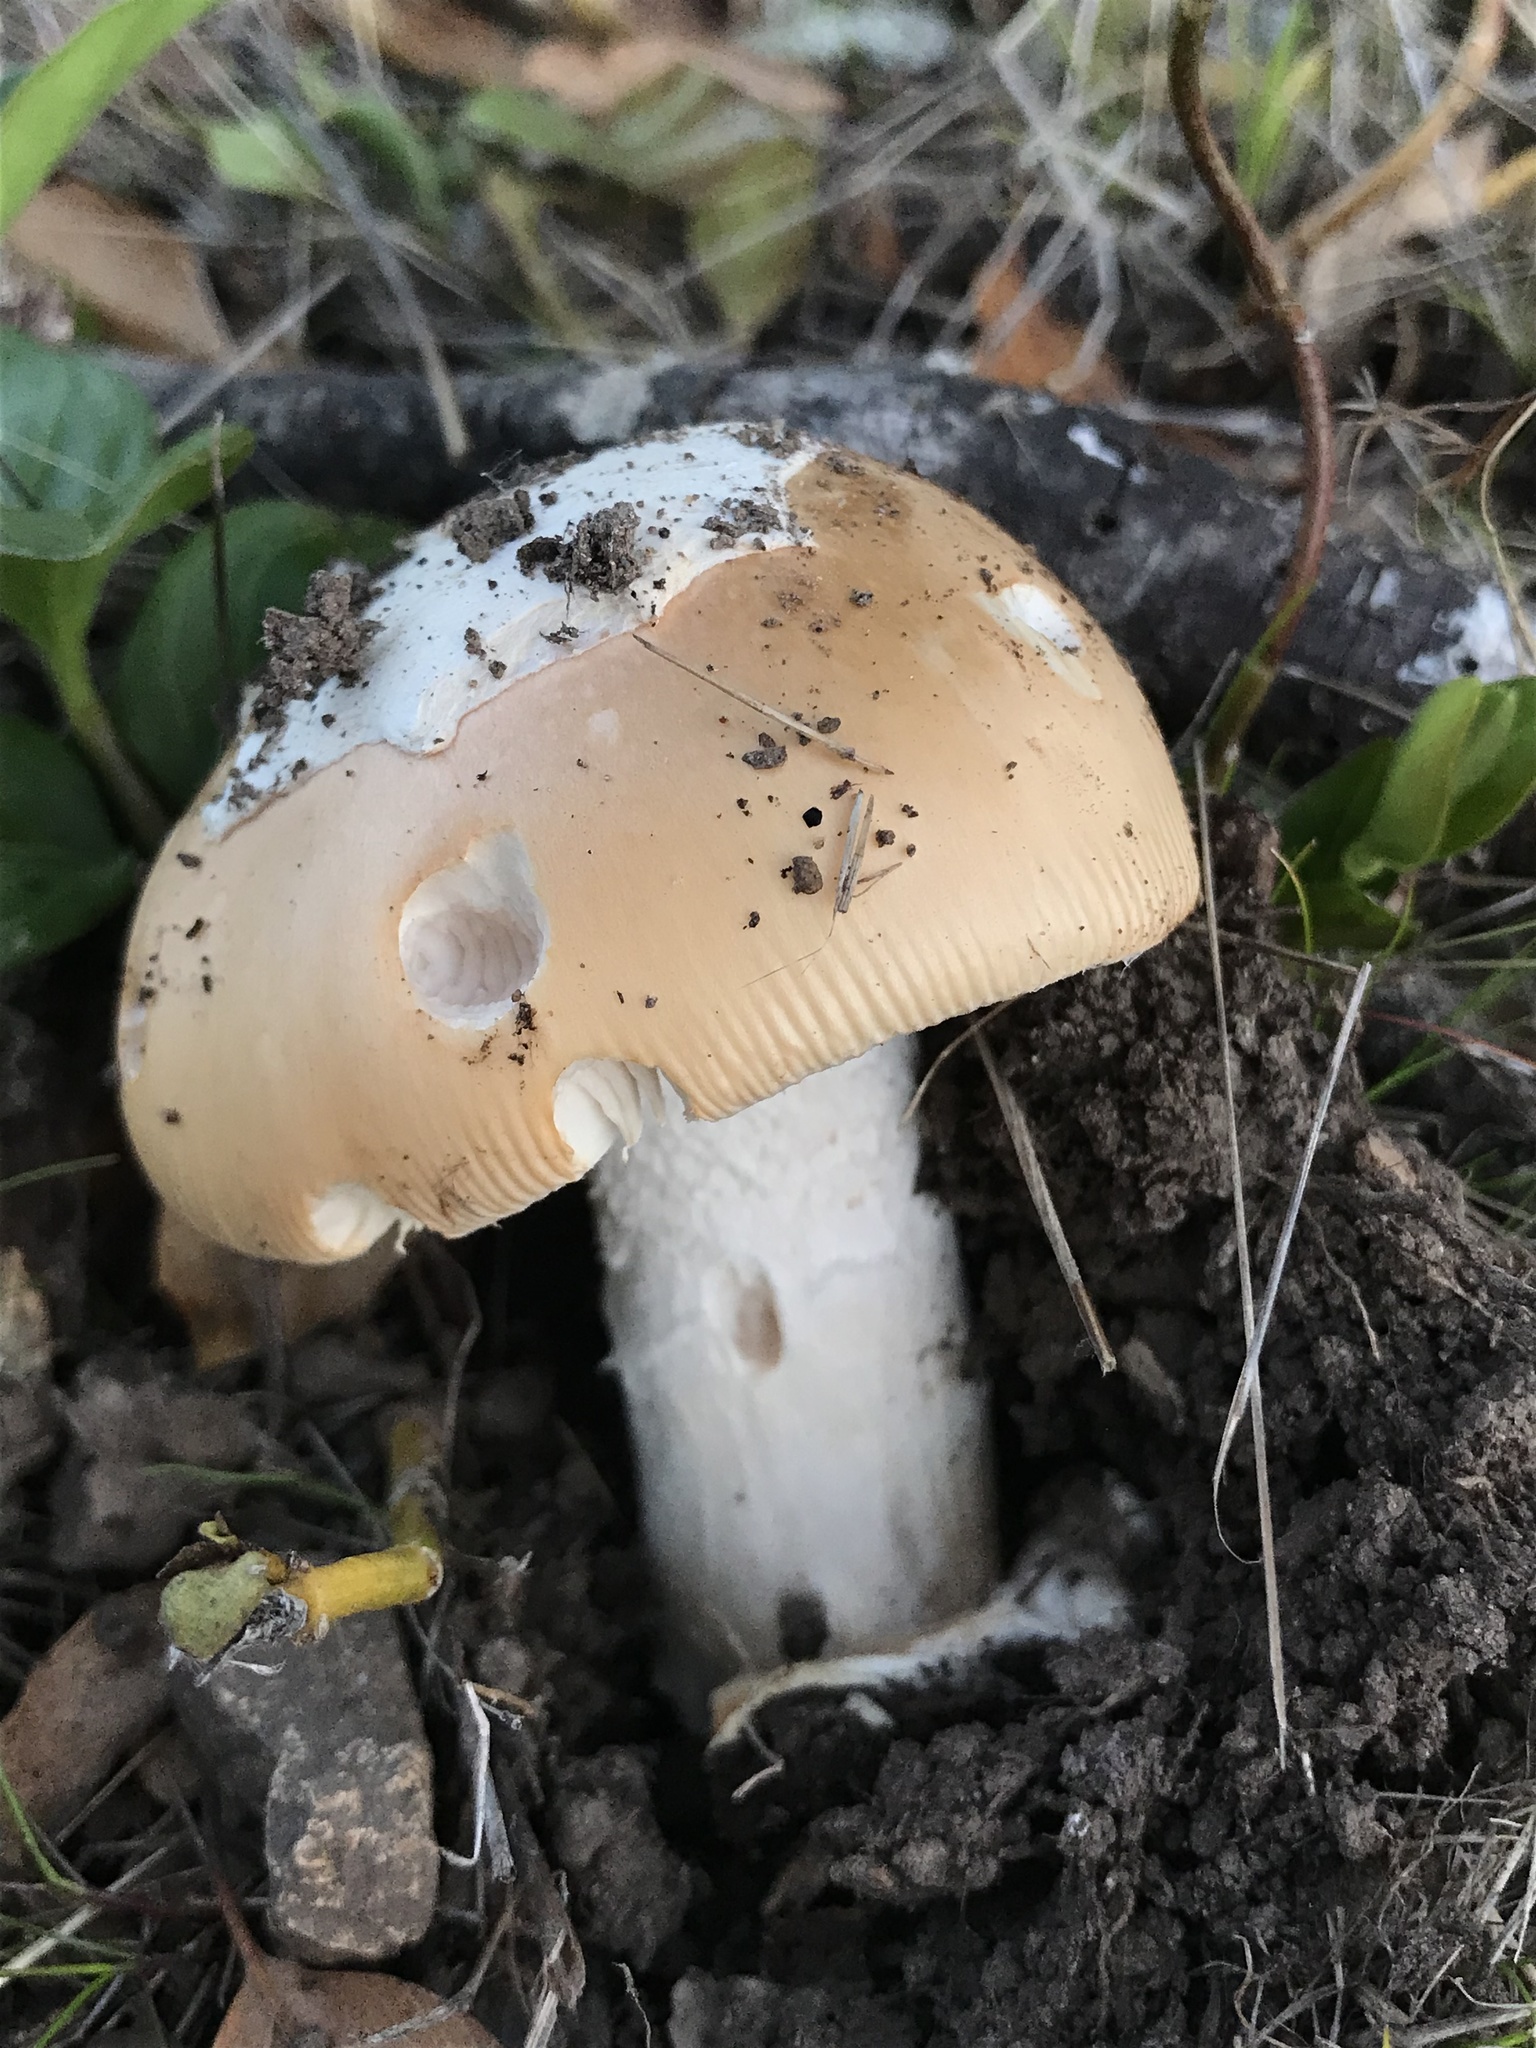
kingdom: Fungi
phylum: Basidiomycota
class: Agaricomycetes
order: Agaricales
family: Amanitaceae
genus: Amanita
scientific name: Amanita velosa
